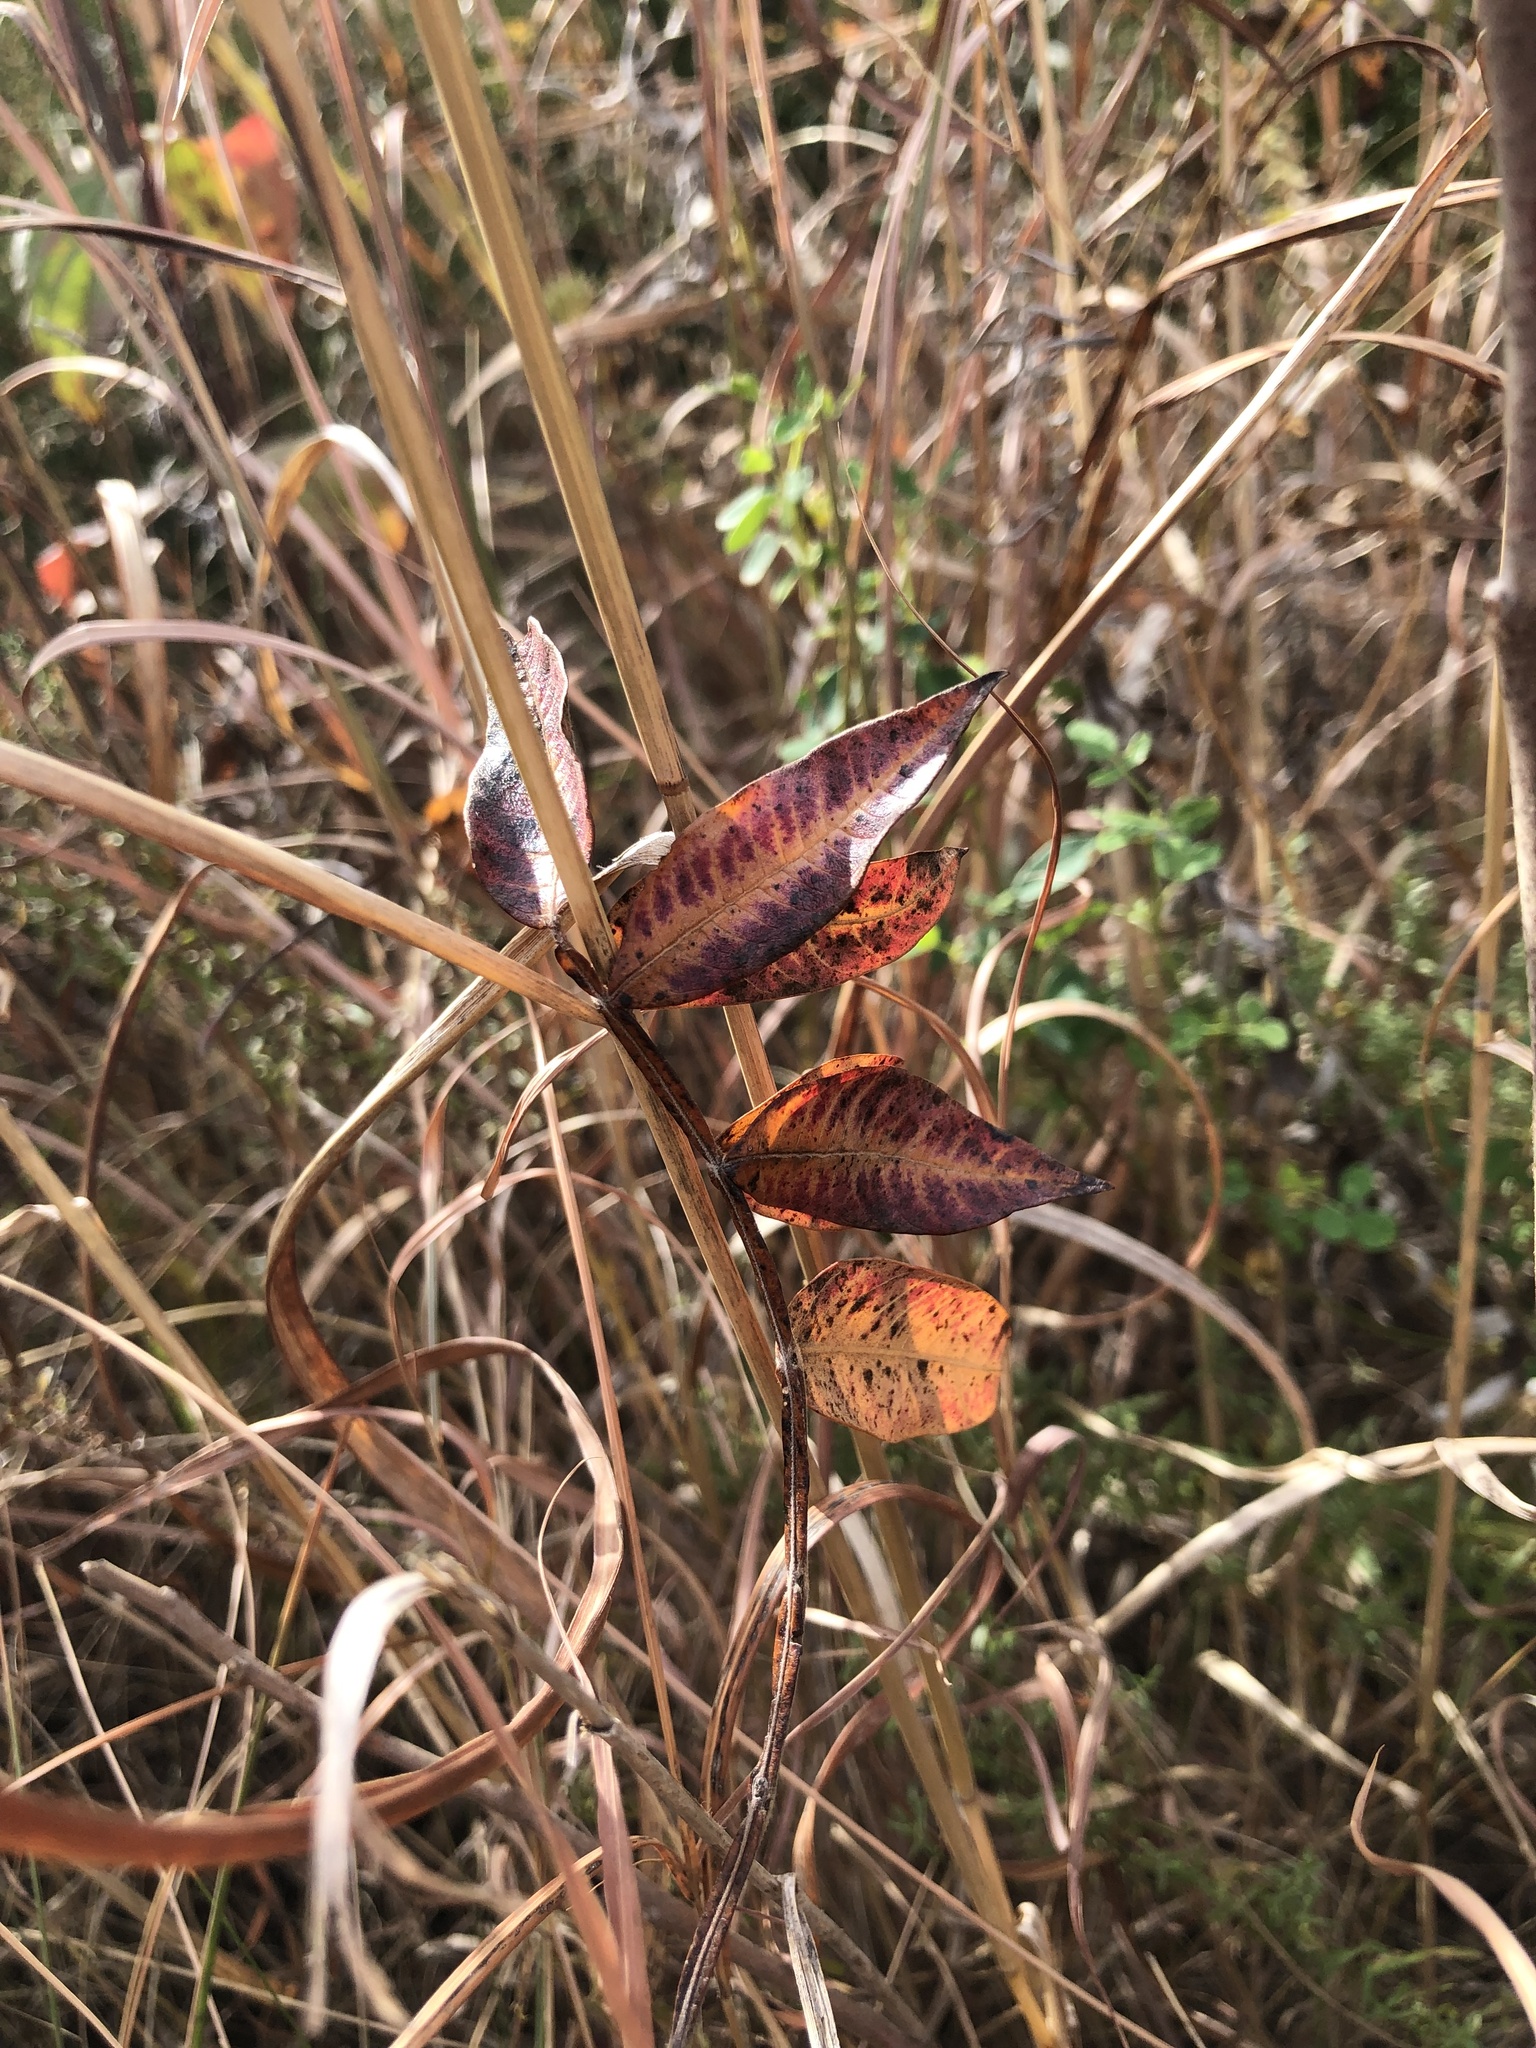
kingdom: Plantae
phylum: Tracheophyta
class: Magnoliopsida
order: Sapindales
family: Anacardiaceae
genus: Rhus
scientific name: Rhus copallina
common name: Shining sumac
